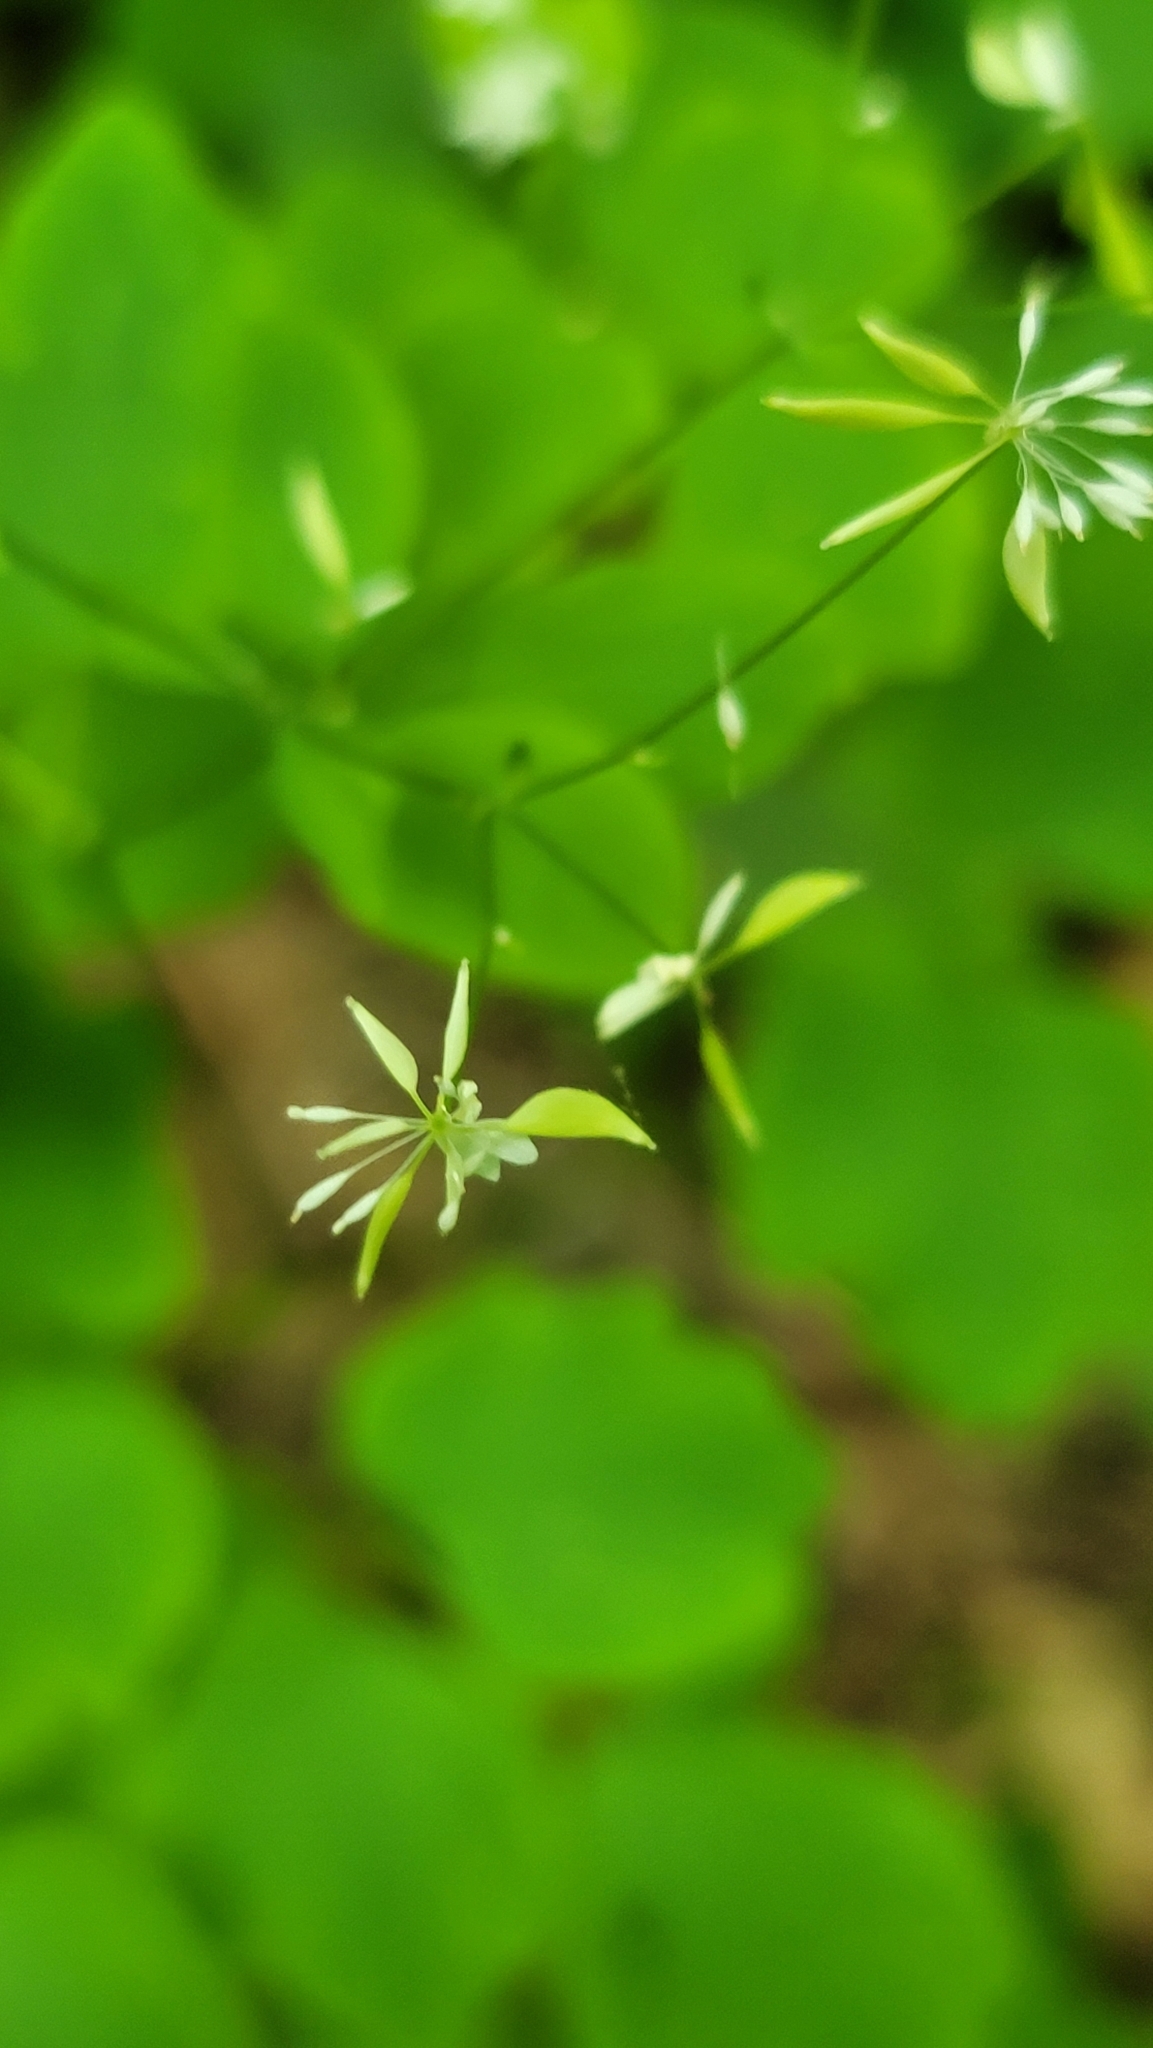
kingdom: Plantae
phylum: Tracheophyta
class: Magnoliopsida
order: Ranunculales
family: Ranunculaceae
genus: Thalictrum
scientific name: Thalictrum clavatum
